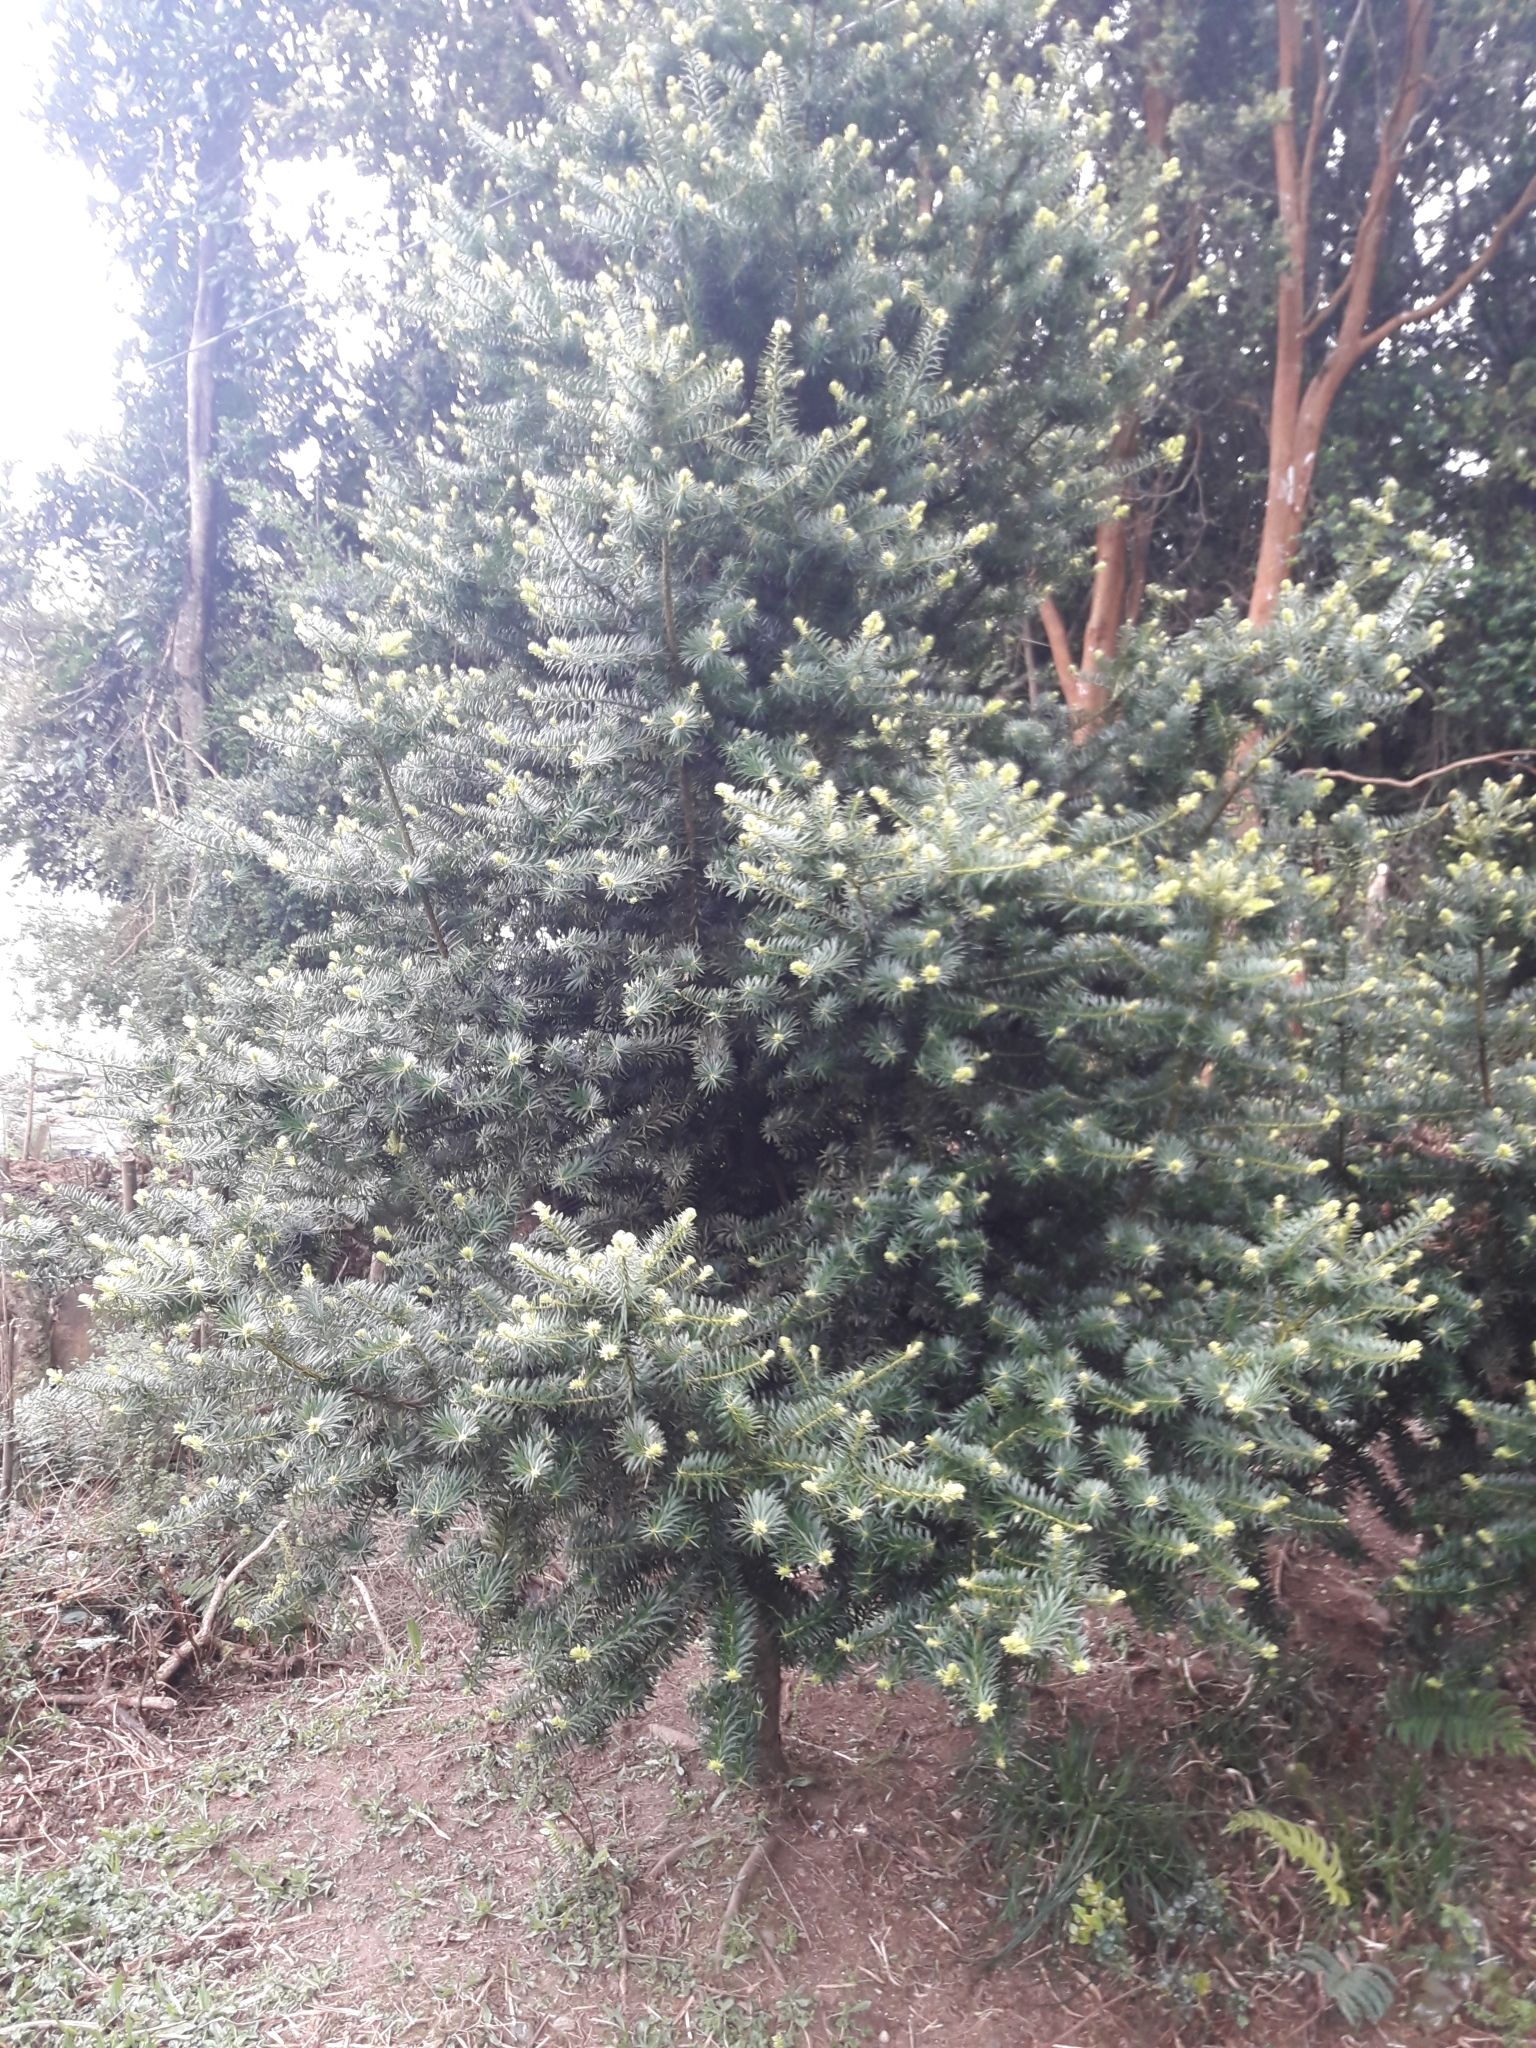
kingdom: Plantae
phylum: Tracheophyta
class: Pinopsida
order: Pinales
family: Podocarpaceae
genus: Podocarpus
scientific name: Podocarpus nubigenus
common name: Cloud podocarp
